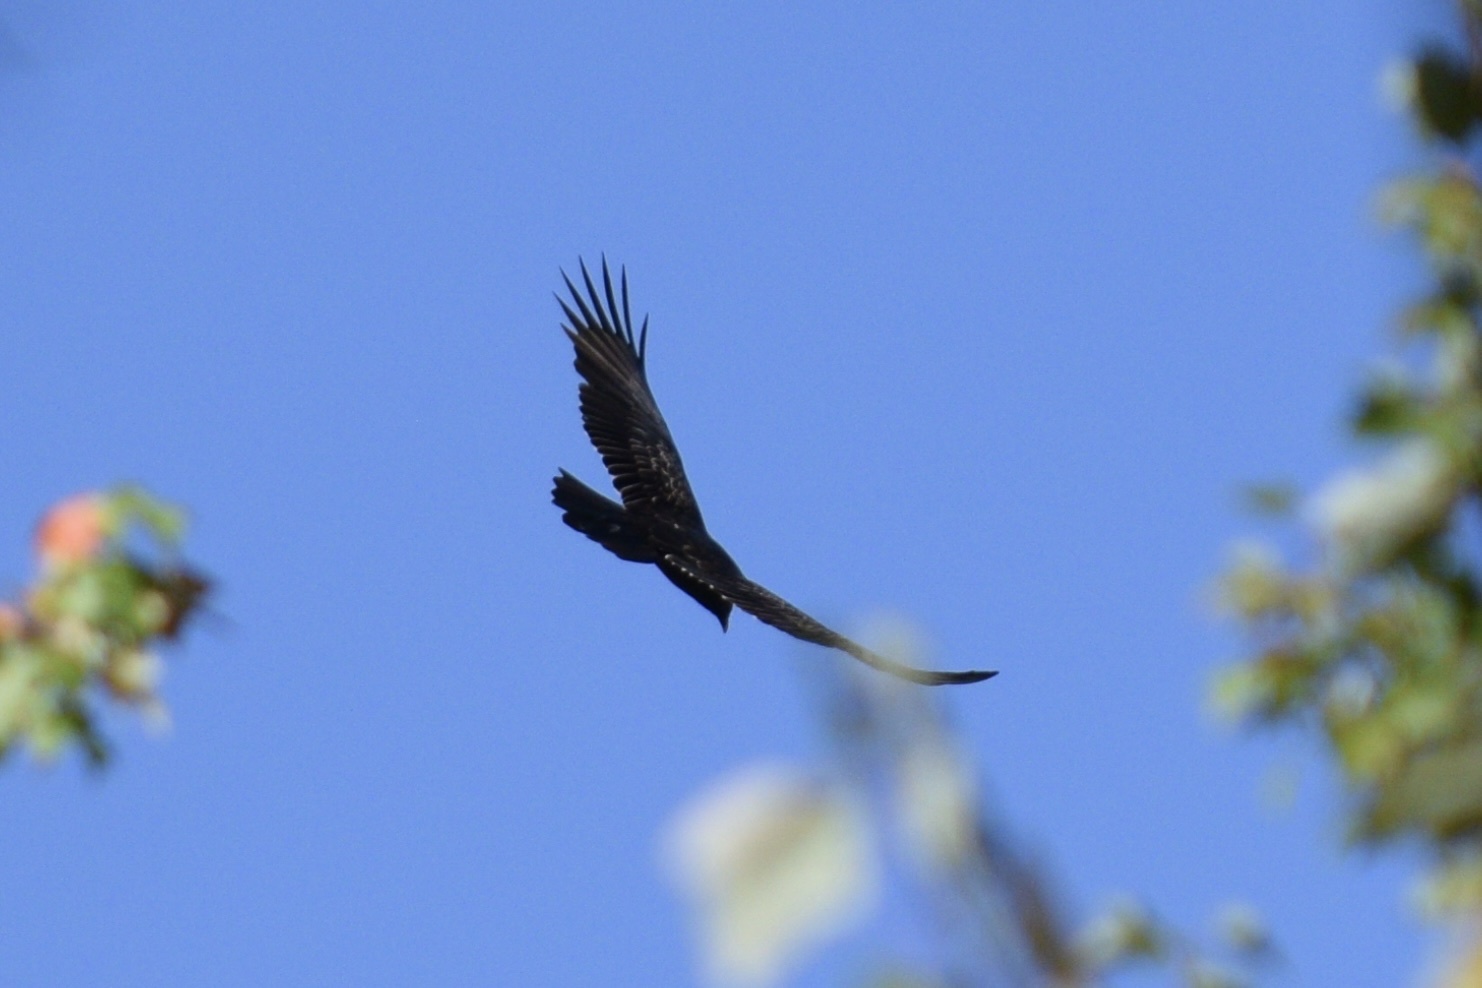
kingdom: Animalia
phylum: Chordata
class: Aves
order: Accipitriformes
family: Cathartidae
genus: Cathartes
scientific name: Cathartes aura
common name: Turkey vulture
